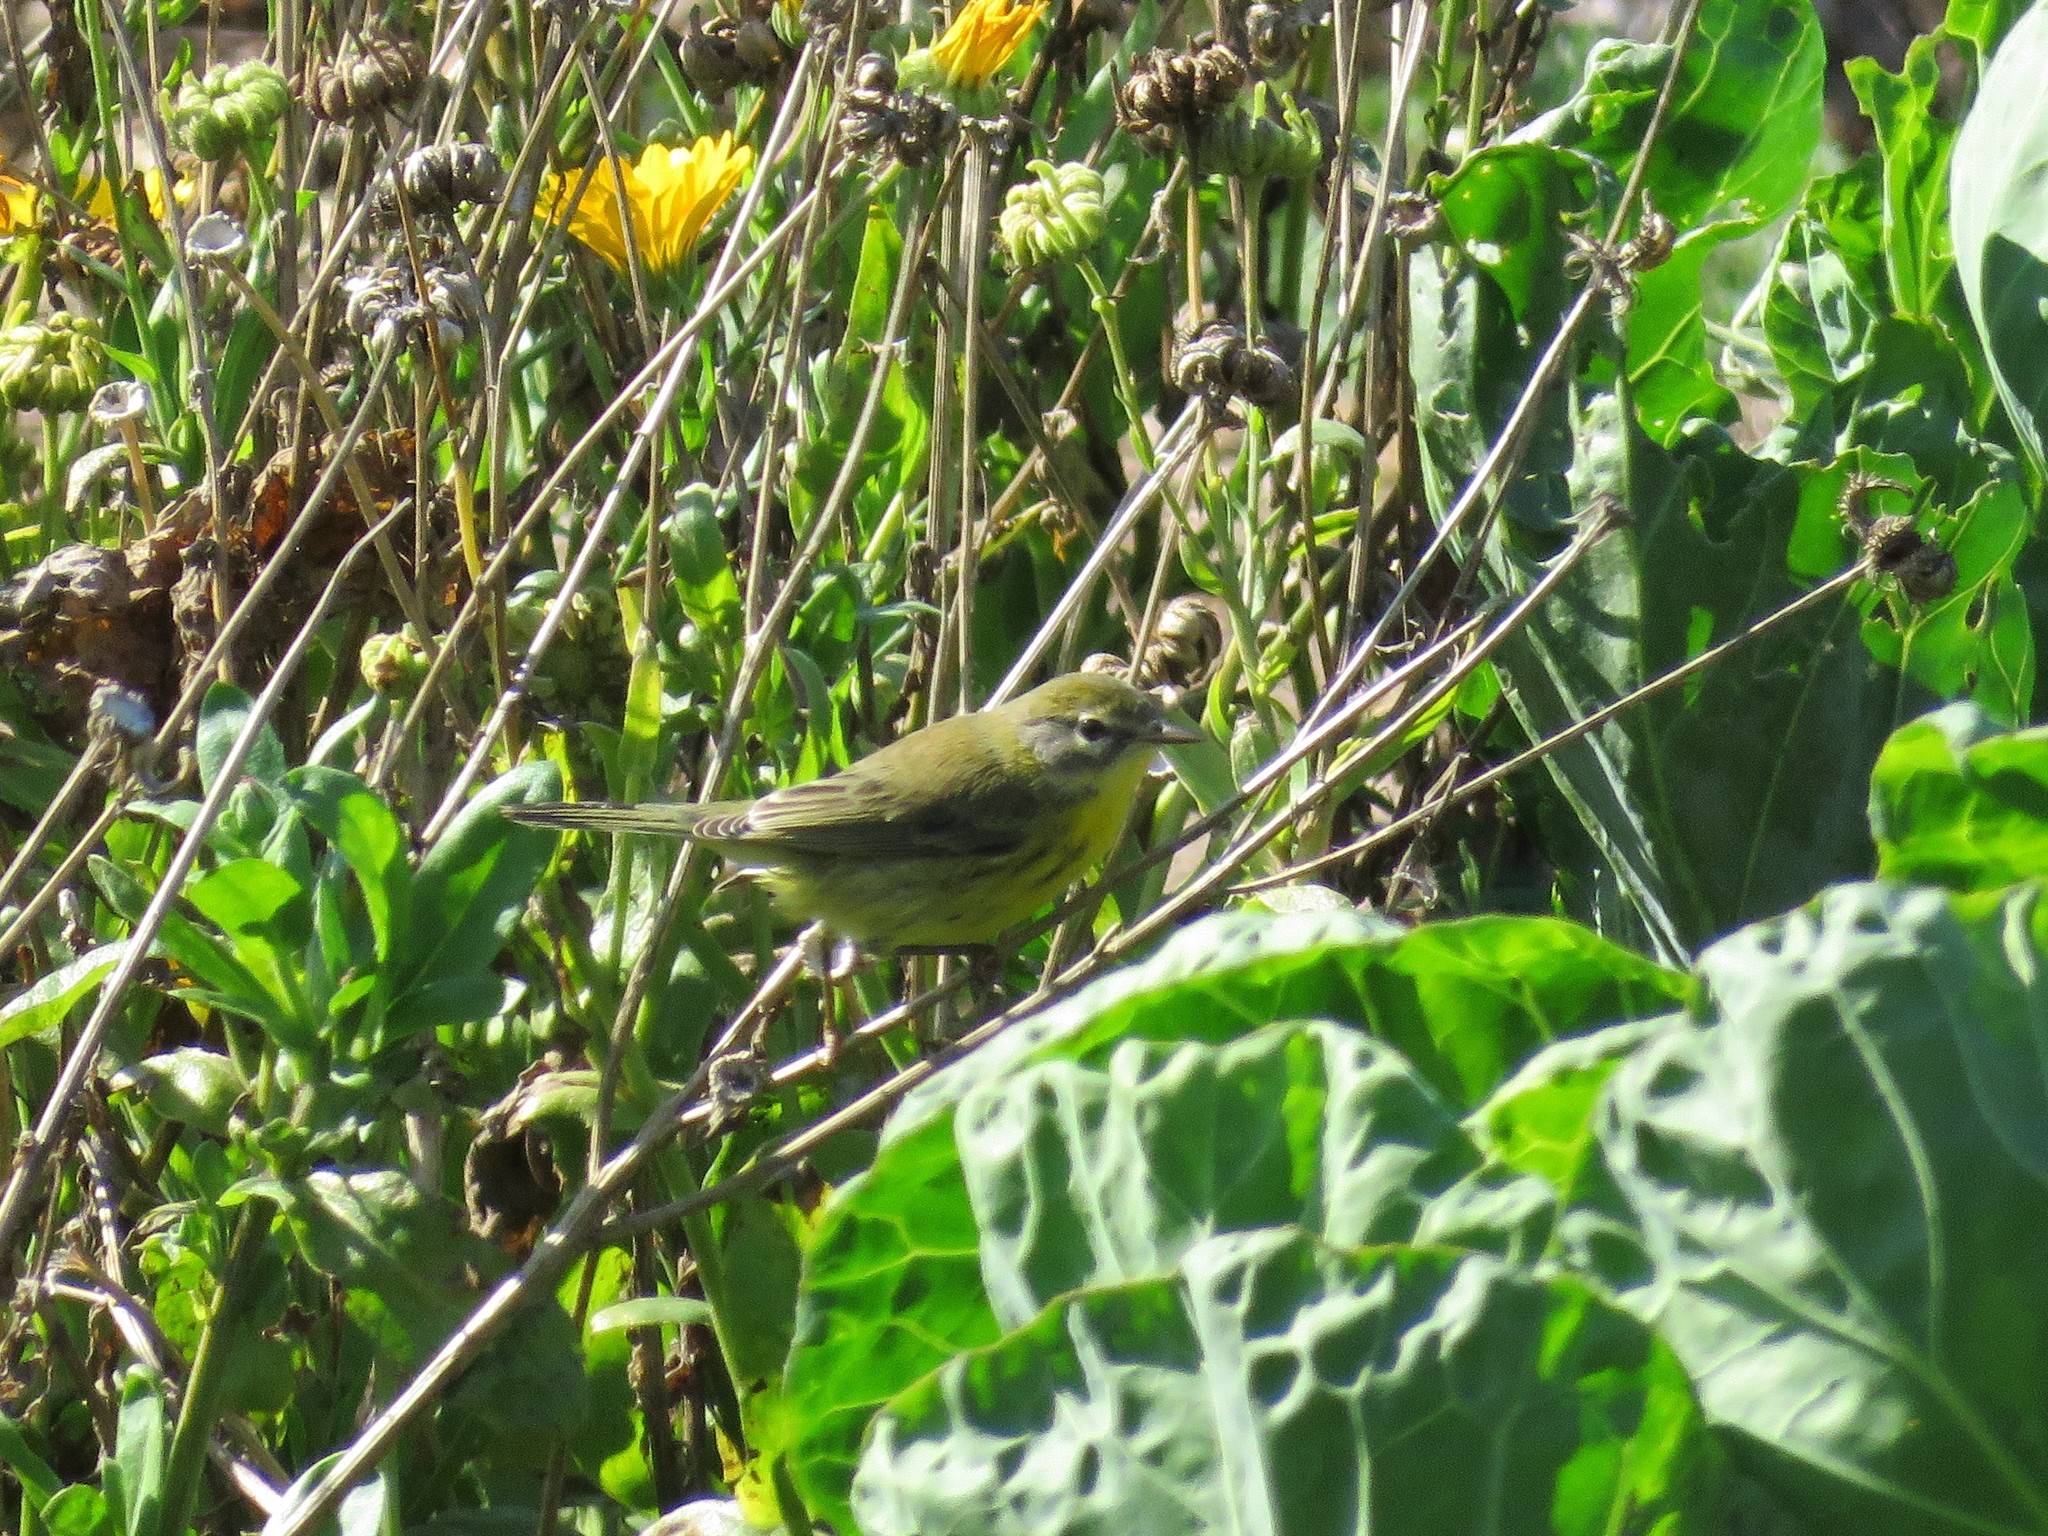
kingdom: Animalia
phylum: Chordata
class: Aves
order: Passeriformes
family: Parulidae
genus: Setophaga
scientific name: Setophaga discolor
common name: Prairie warbler
